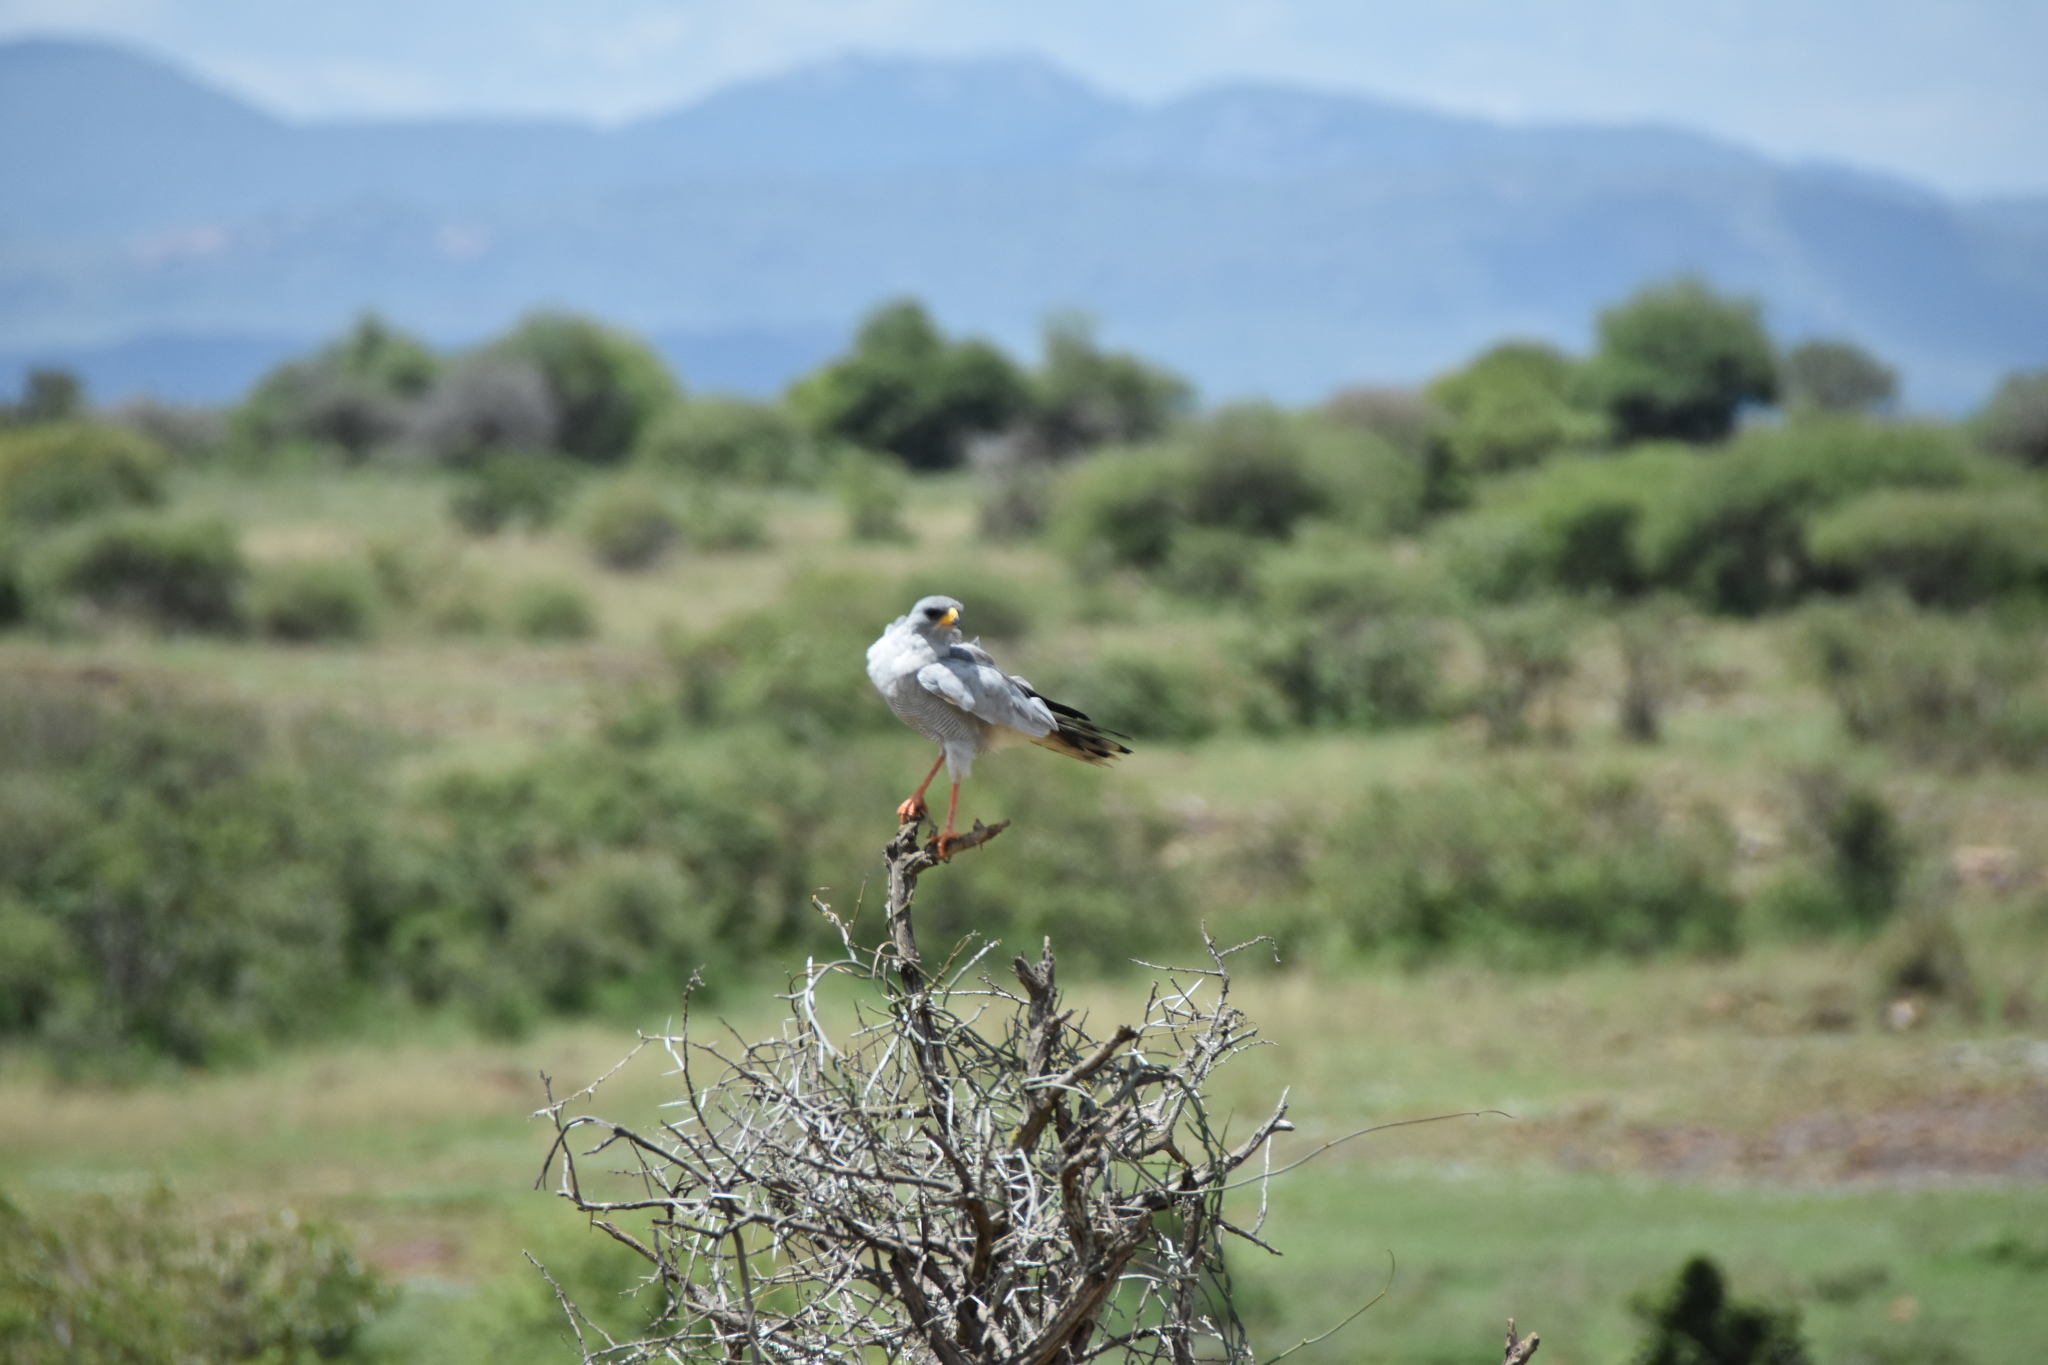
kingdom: Animalia
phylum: Chordata
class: Aves
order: Accipitriformes
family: Accipitridae
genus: Melierax
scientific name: Melierax poliopterus
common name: Eastern chanting goshawk
